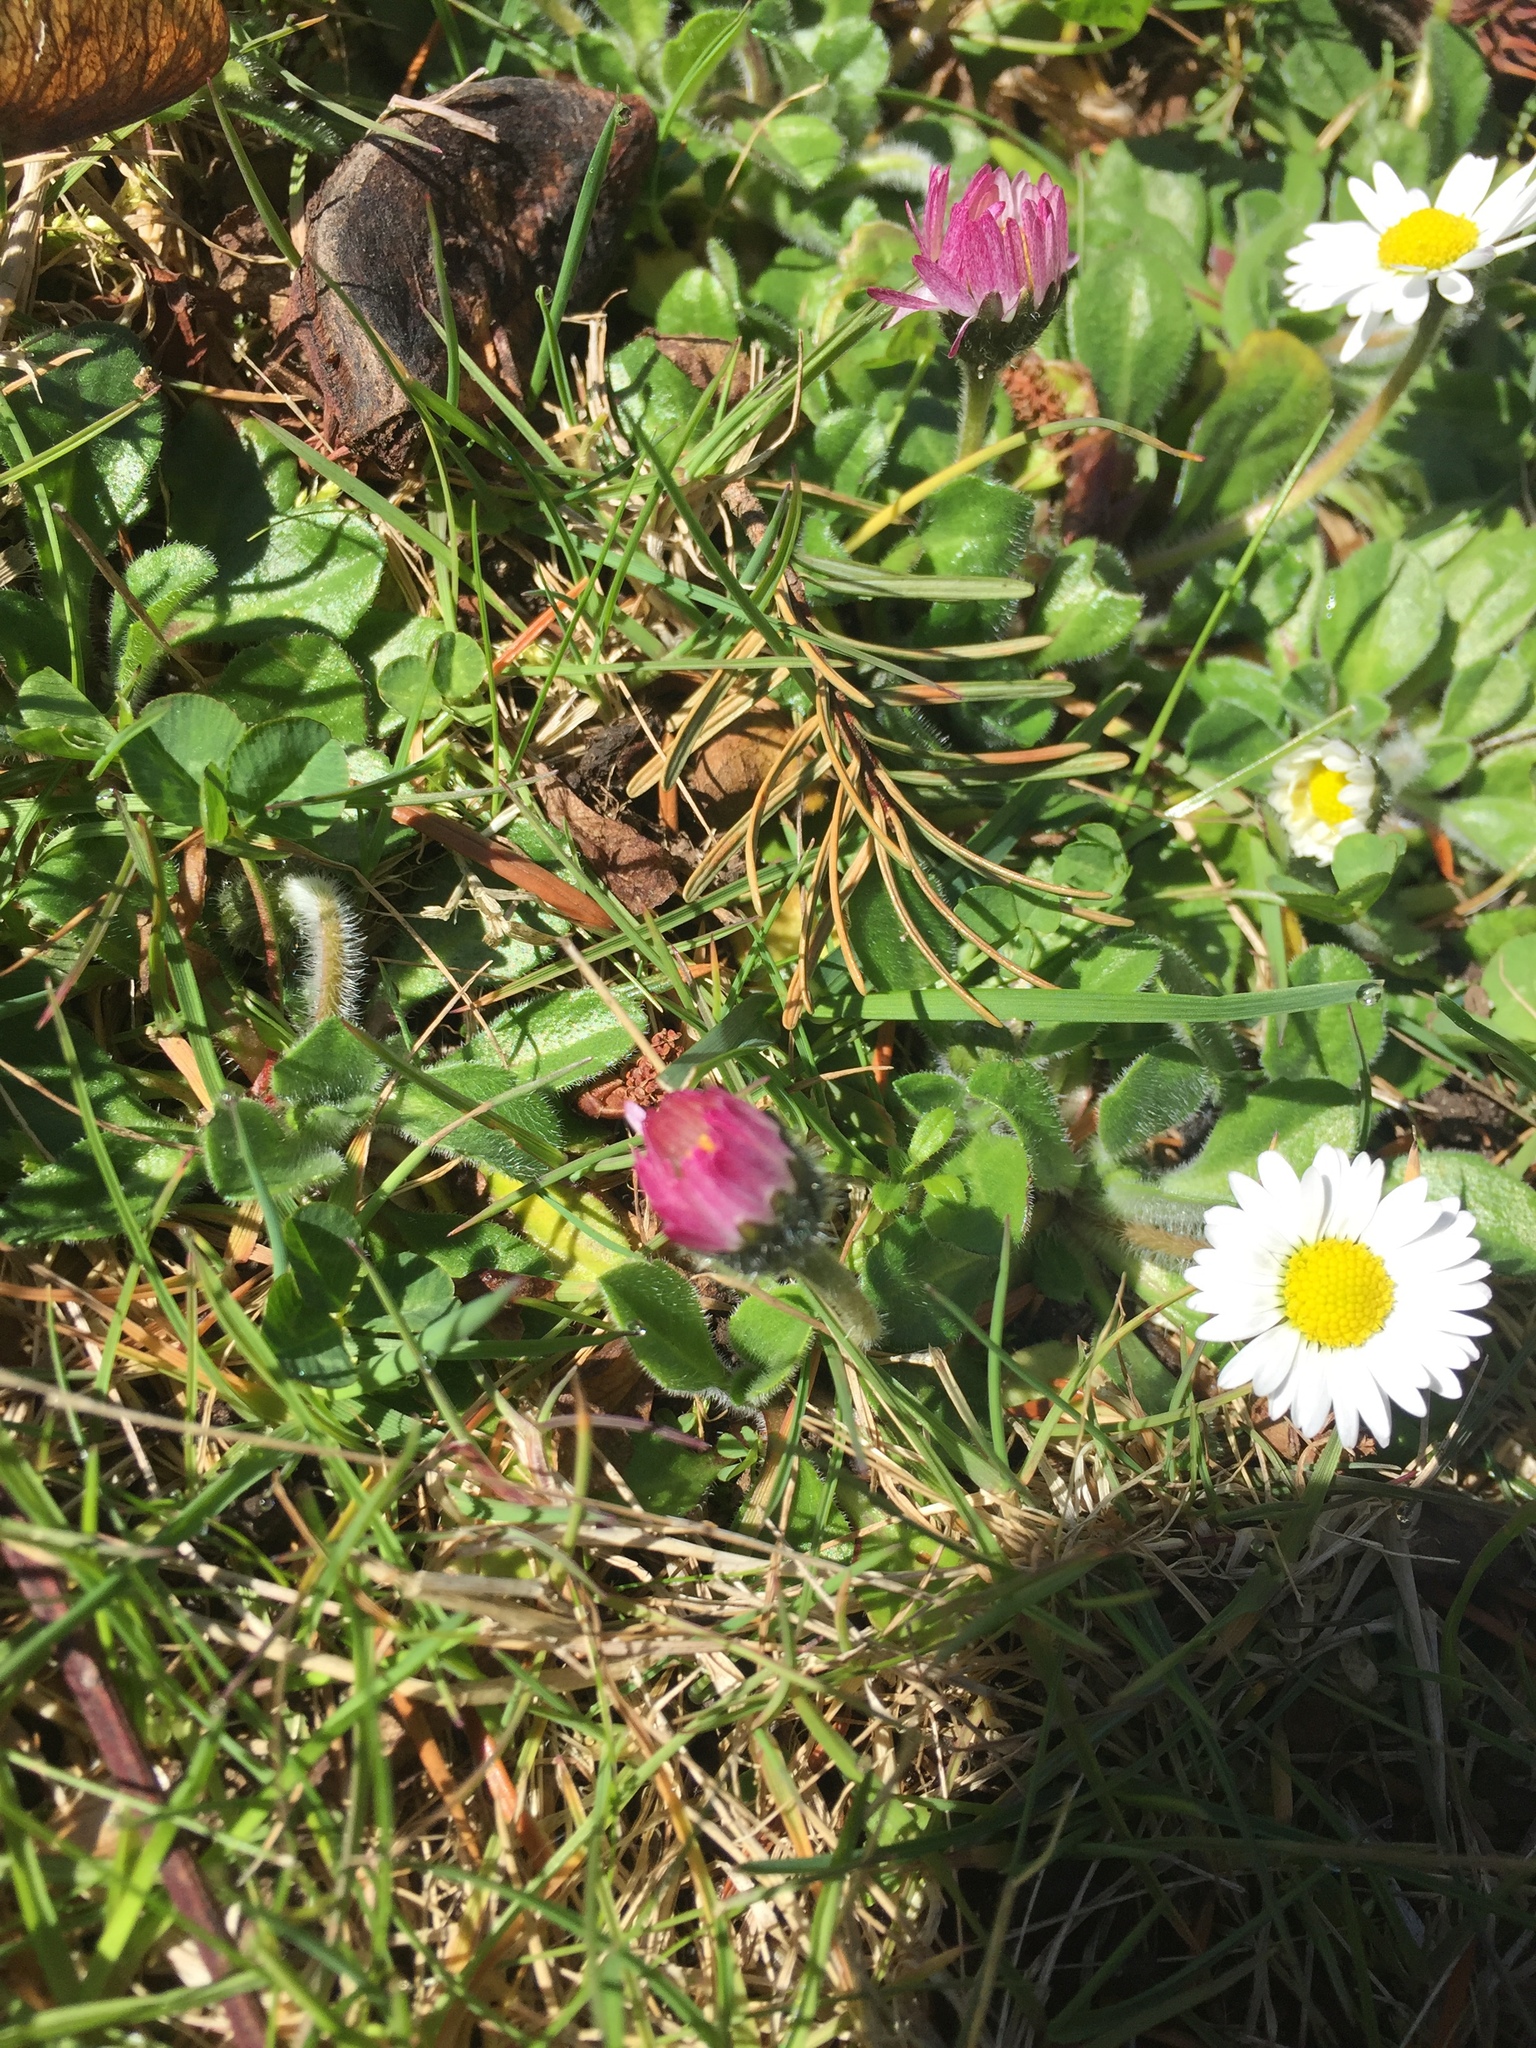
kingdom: Plantae
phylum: Tracheophyta
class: Magnoliopsida
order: Asterales
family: Asteraceae
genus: Bellis
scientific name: Bellis perennis
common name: Lawndaisy
